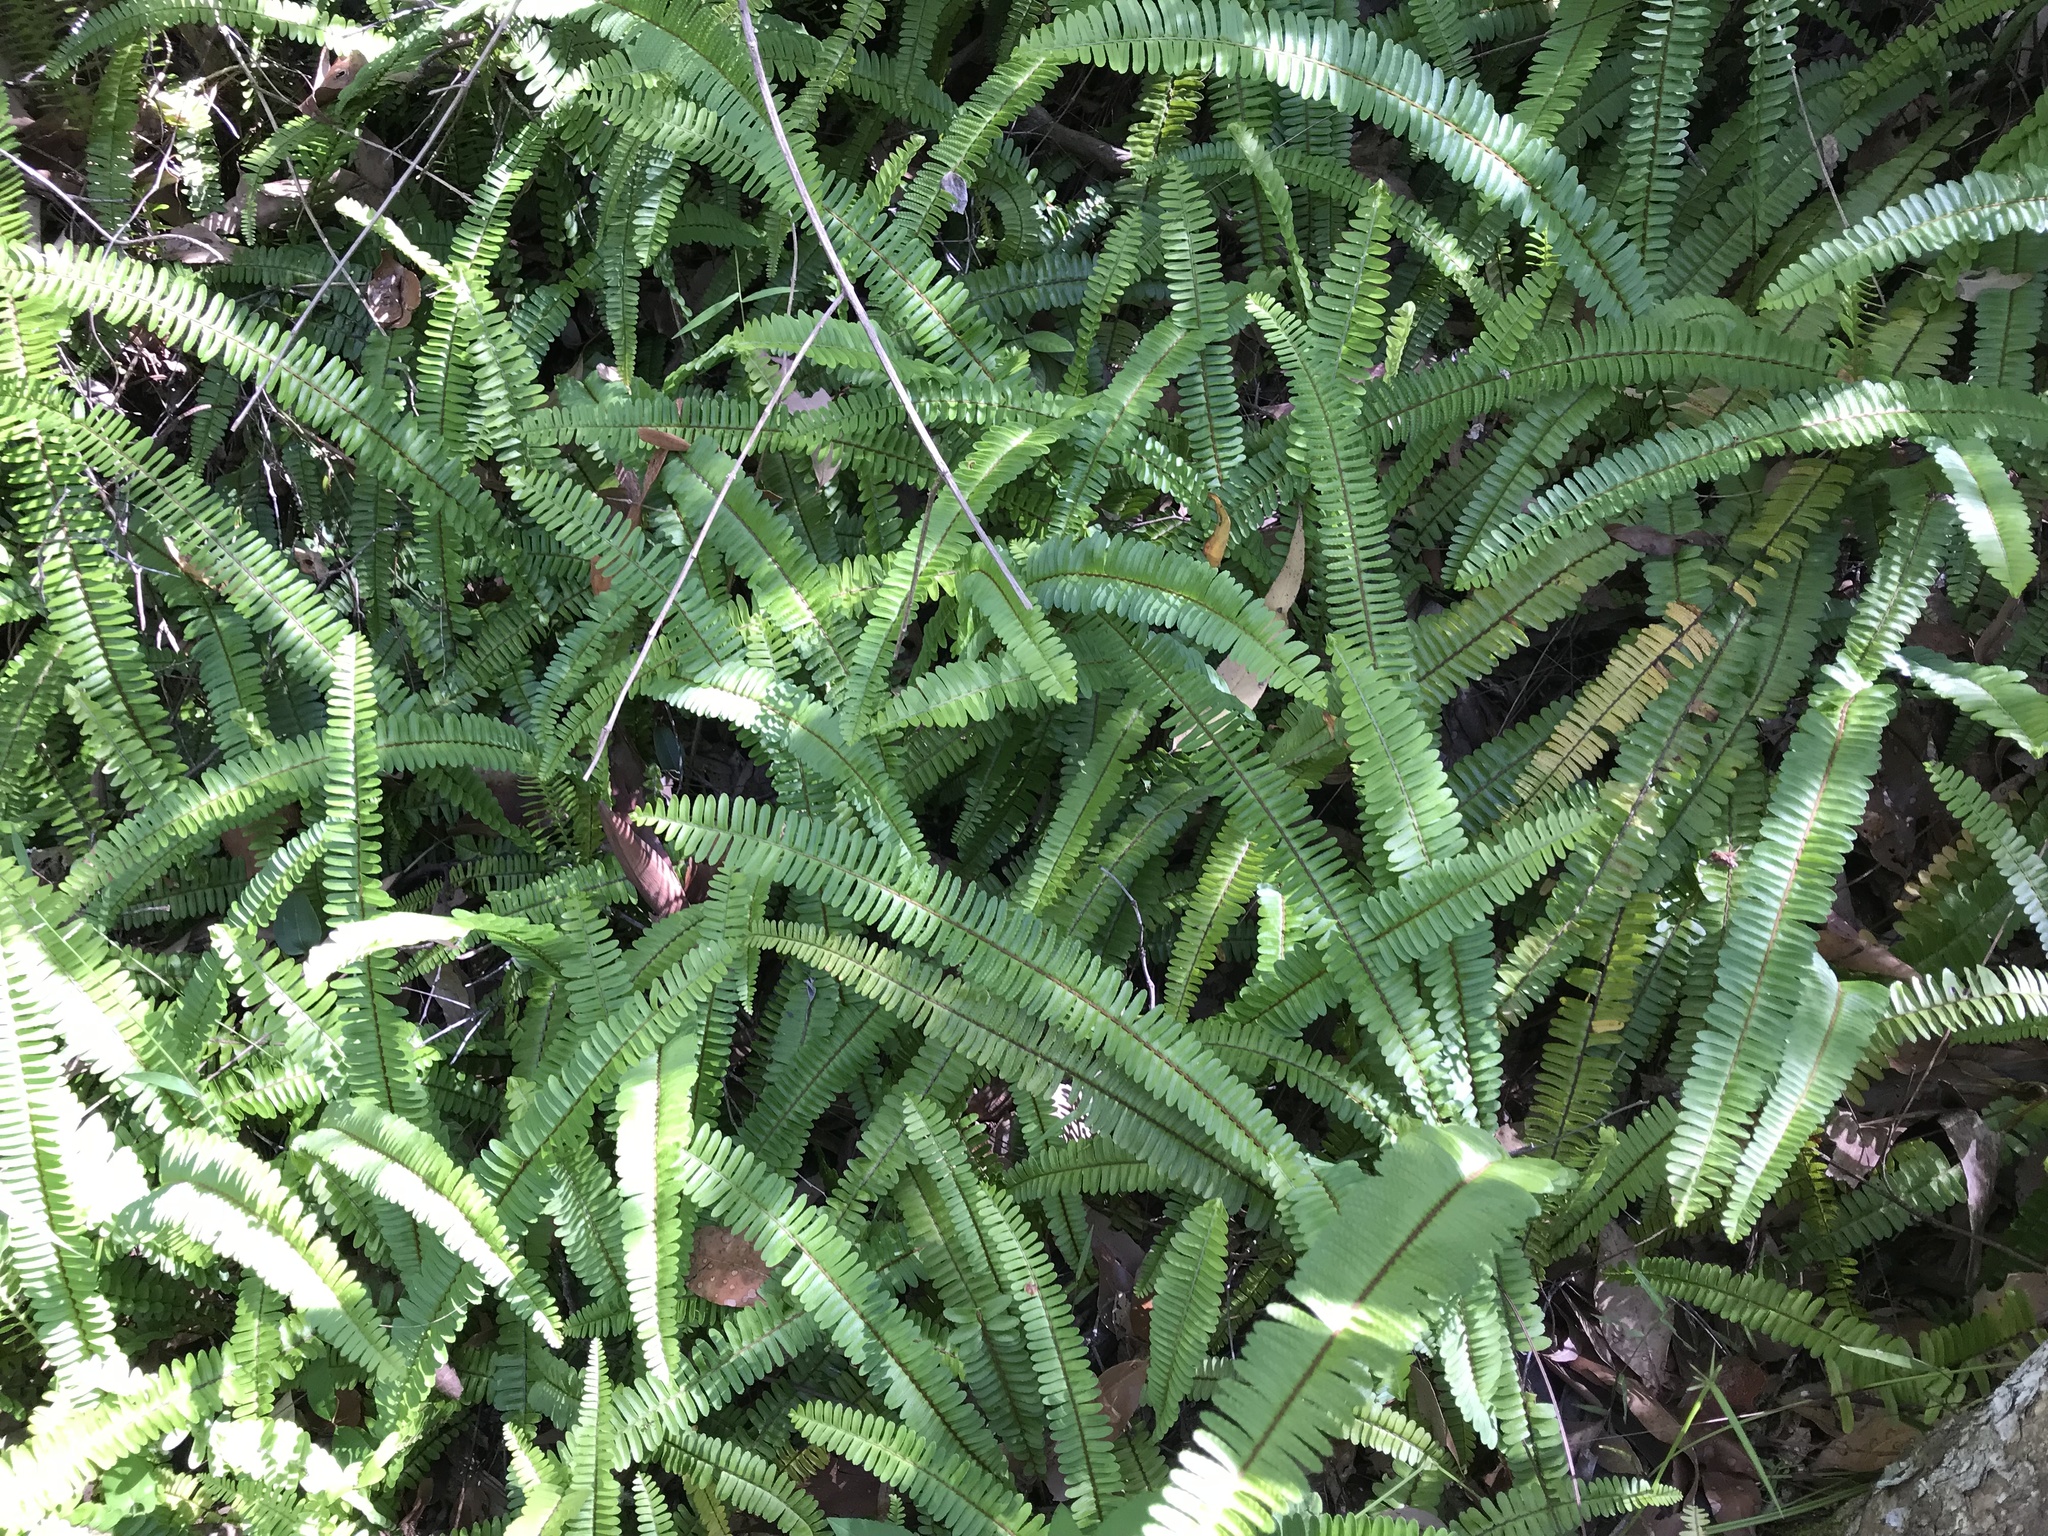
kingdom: Plantae
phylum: Tracheophyta
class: Polypodiopsida
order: Polypodiales
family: Nephrolepidaceae
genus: Nephrolepis
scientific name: Nephrolepis cordifolia
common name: Narrow swordfern
